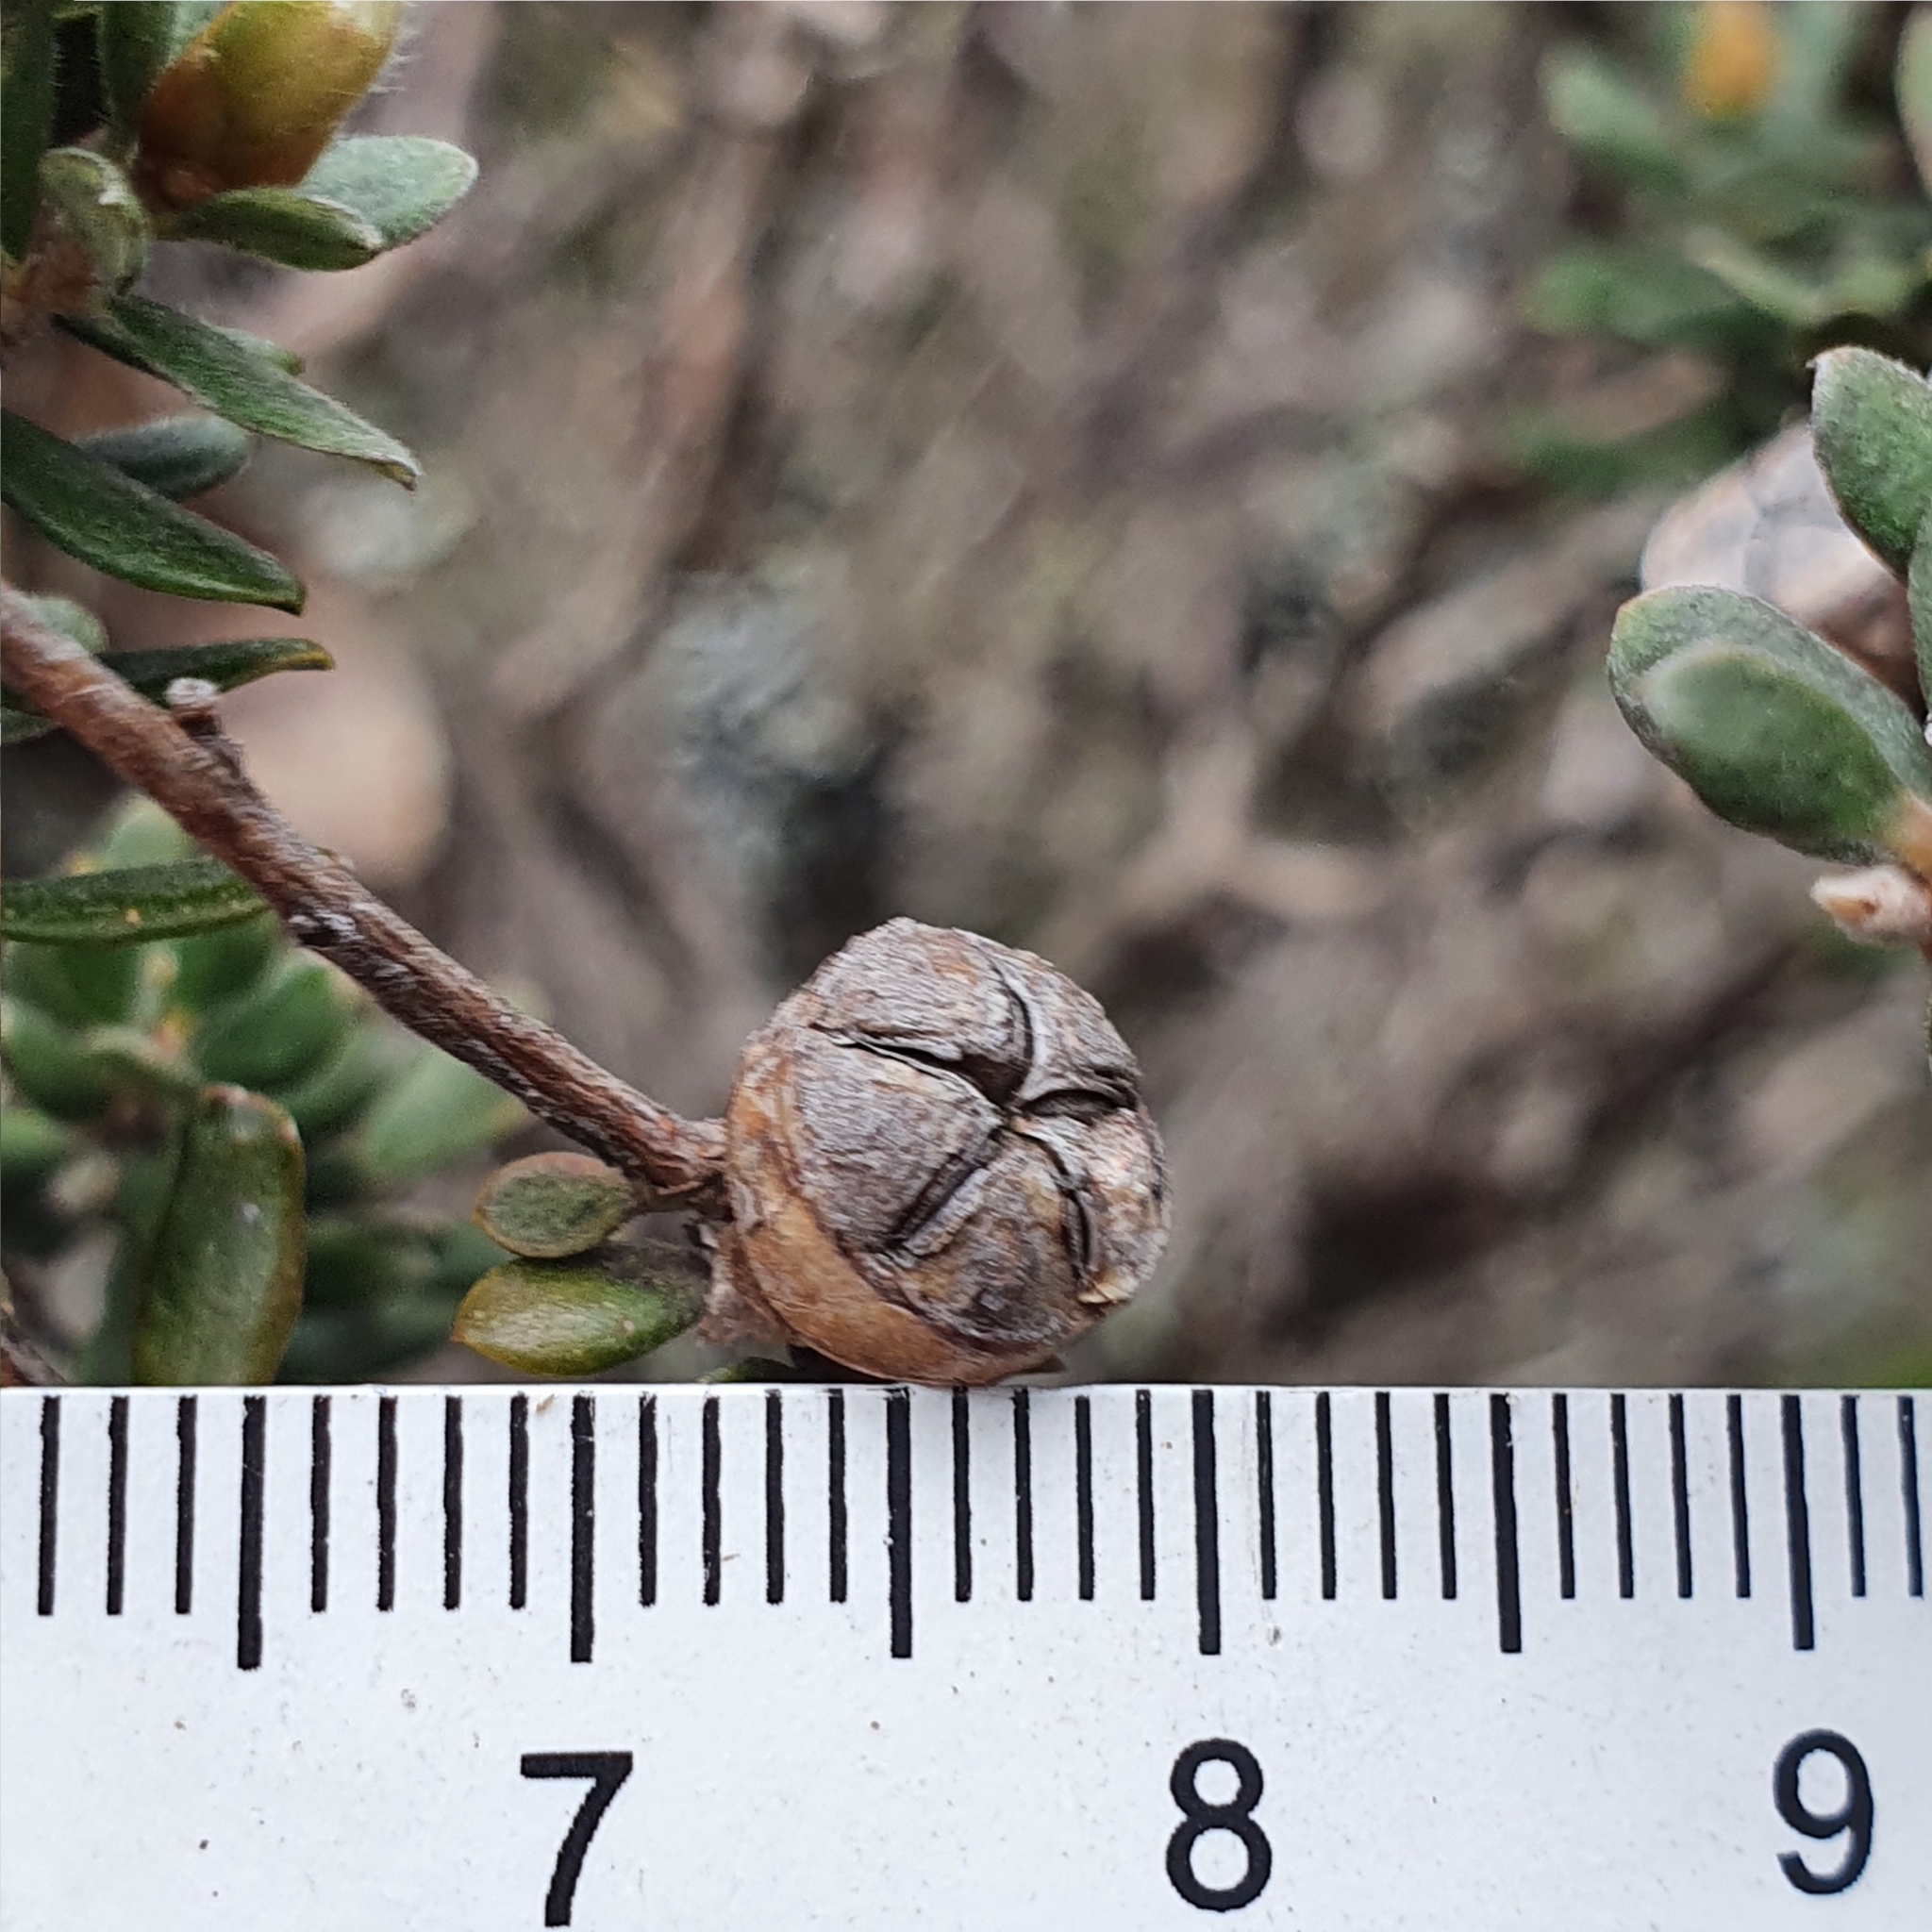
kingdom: Plantae
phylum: Tracheophyta
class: Magnoliopsida
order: Myrtales
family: Myrtaceae
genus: Leptospermum
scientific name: Leptospermum lanigerum
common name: Woolly tea-tree
